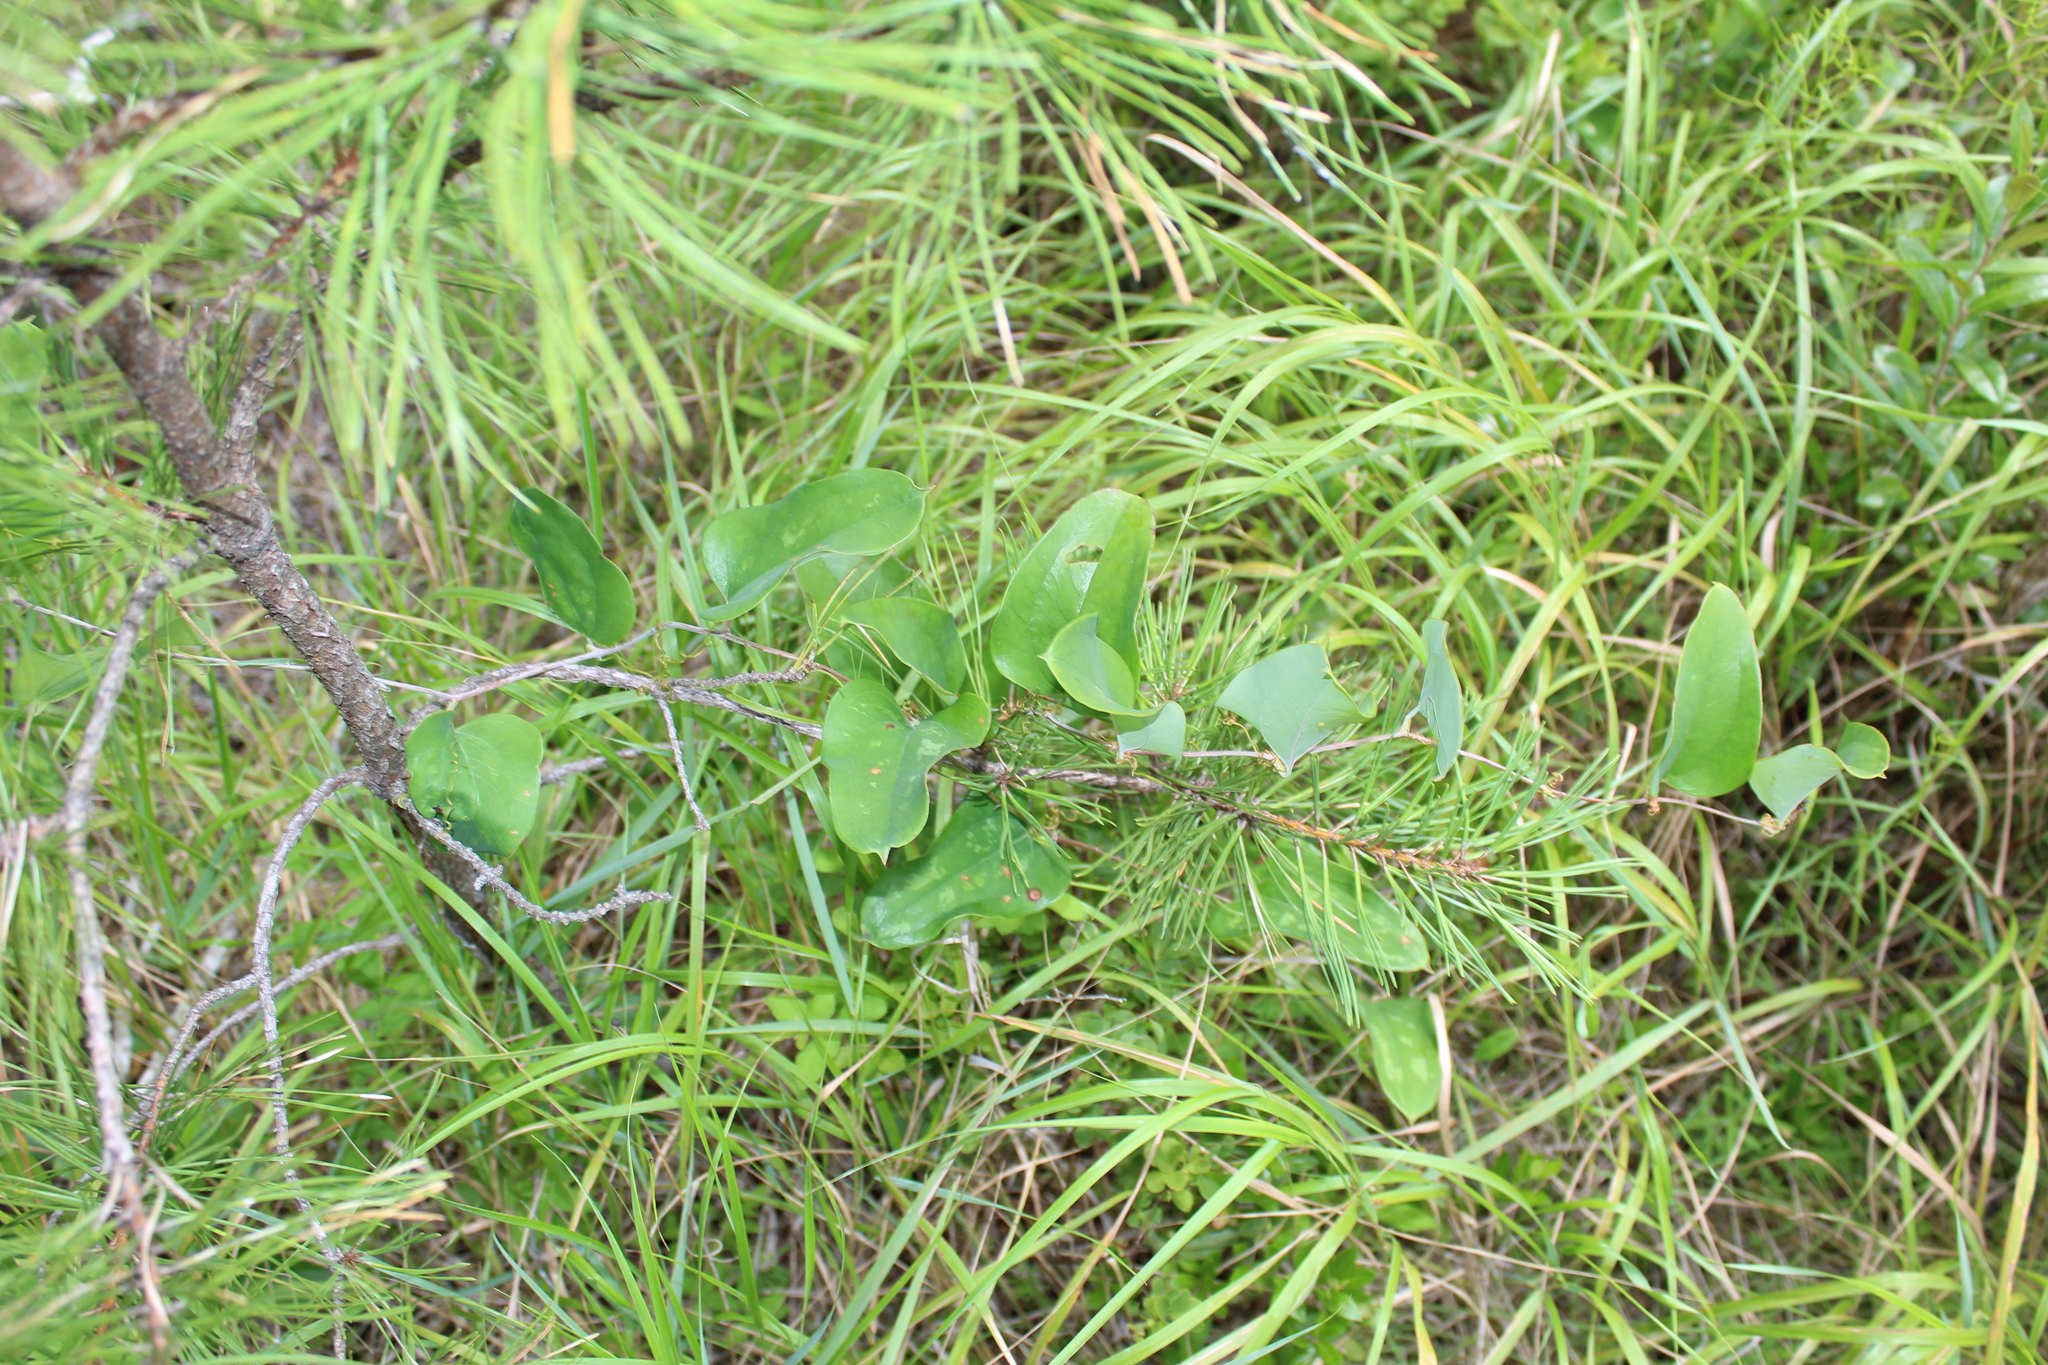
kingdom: Plantae
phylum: Tracheophyta
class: Liliopsida
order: Liliales
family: Smilacaceae
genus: Smilax
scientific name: Smilax glauca
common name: Cat greenbrier
